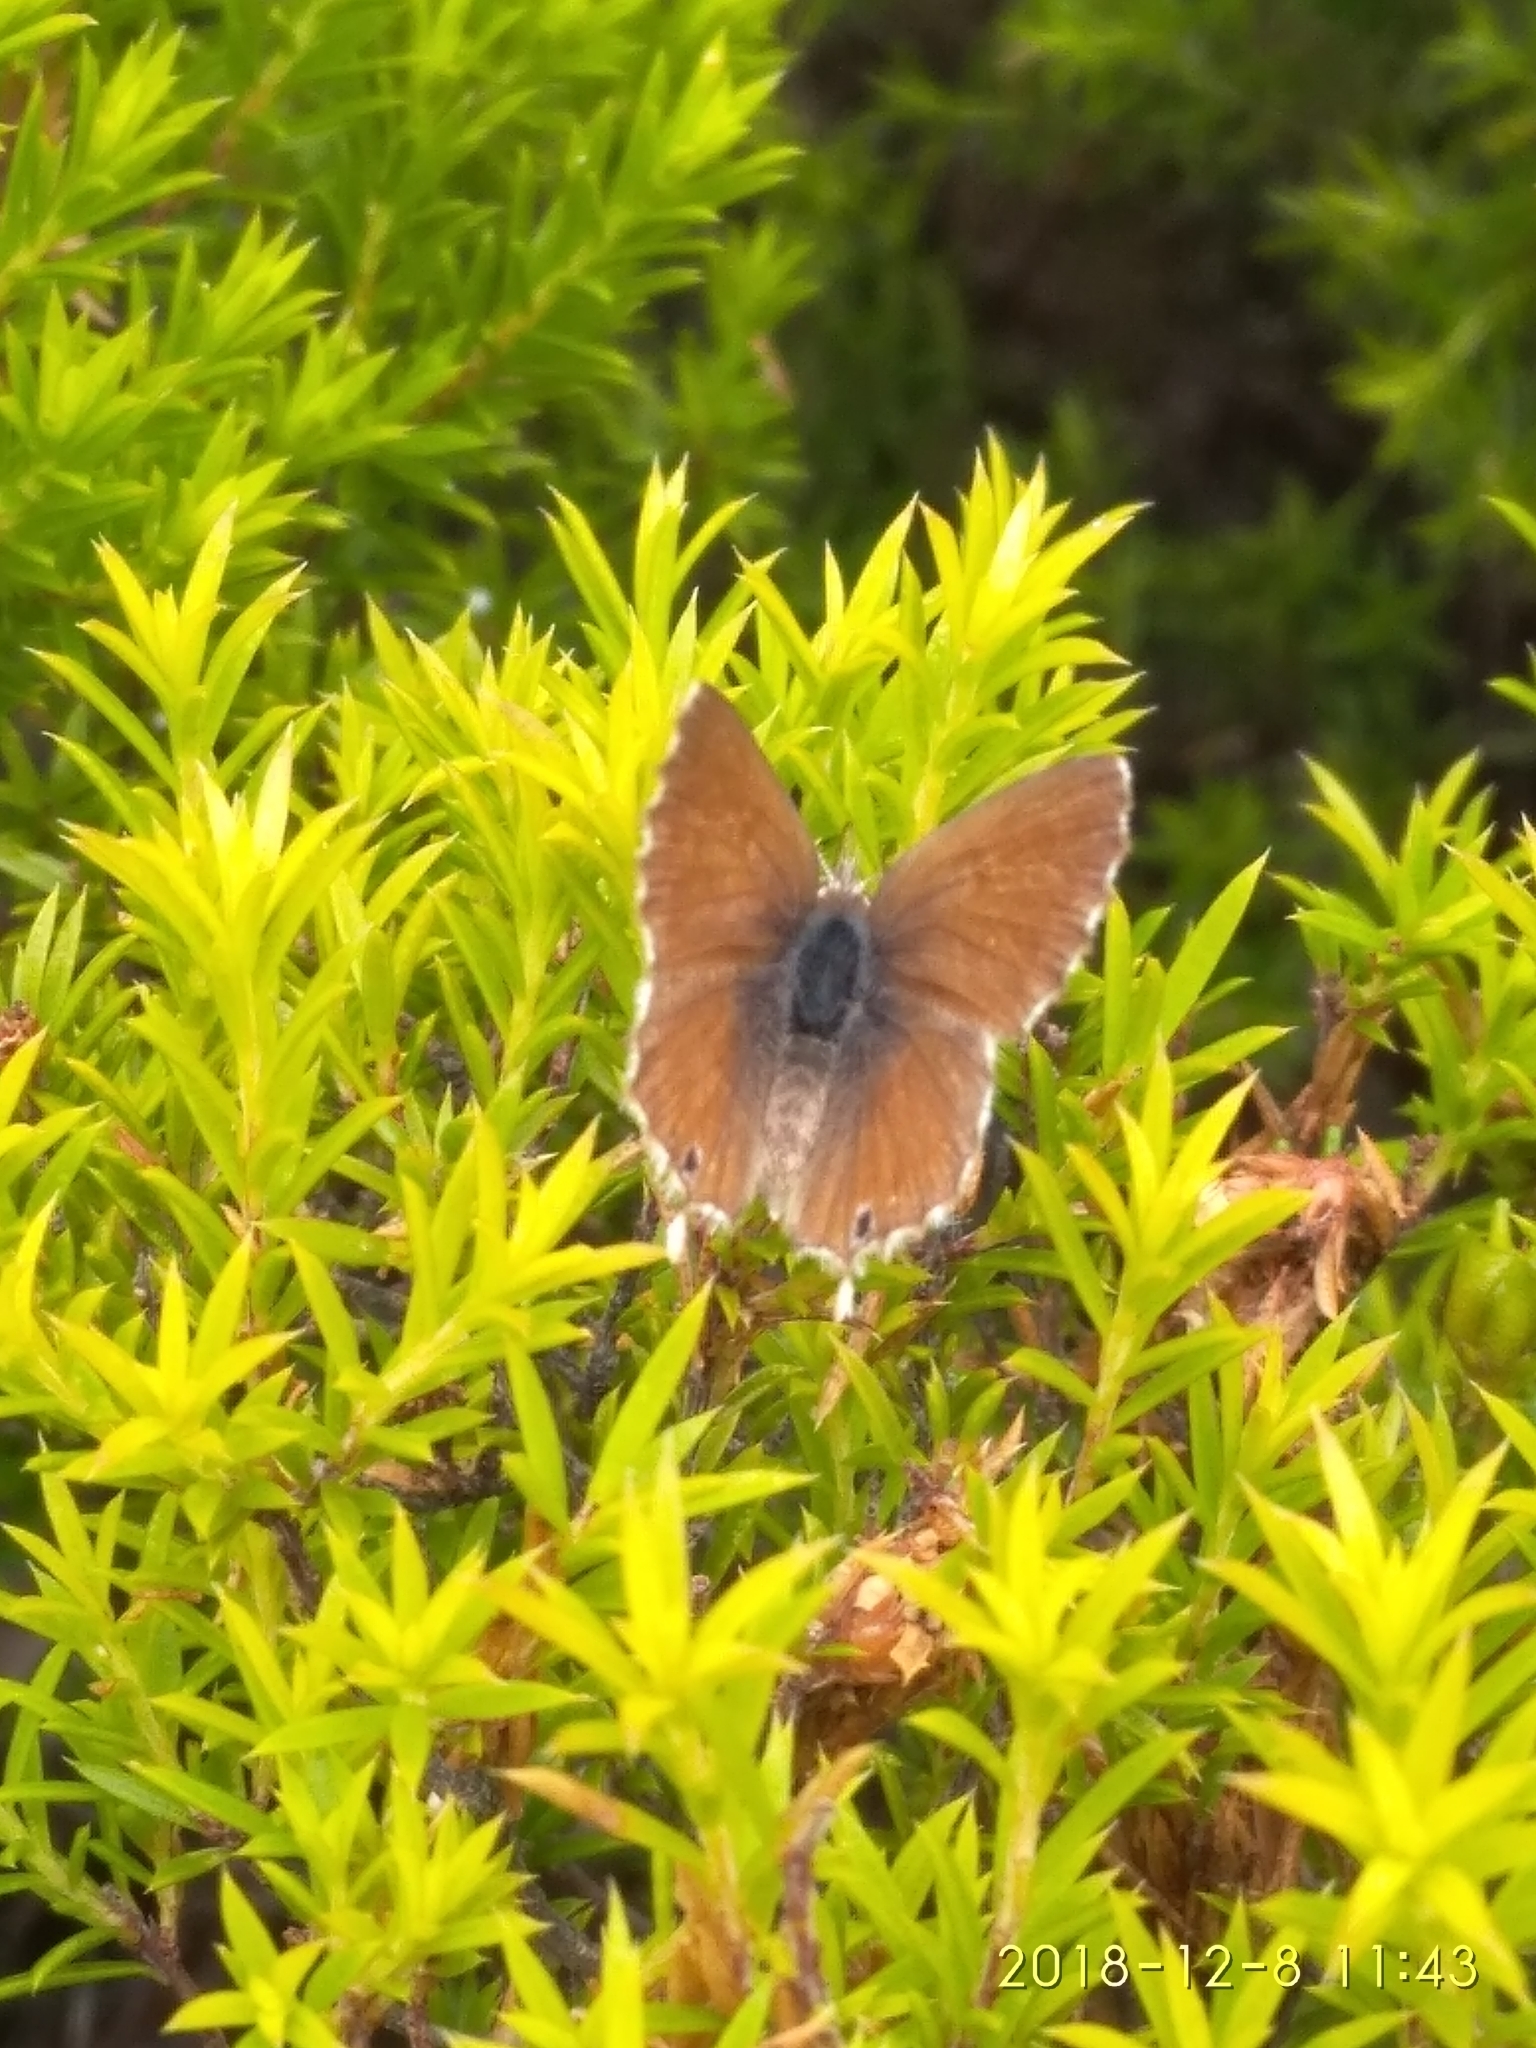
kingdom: Animalia
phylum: Arthropoda
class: Insecta
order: Lepidoptera
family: Lycaenidae
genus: Cacyreus
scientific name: Cacyreus marshalli
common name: Geranium bronze
